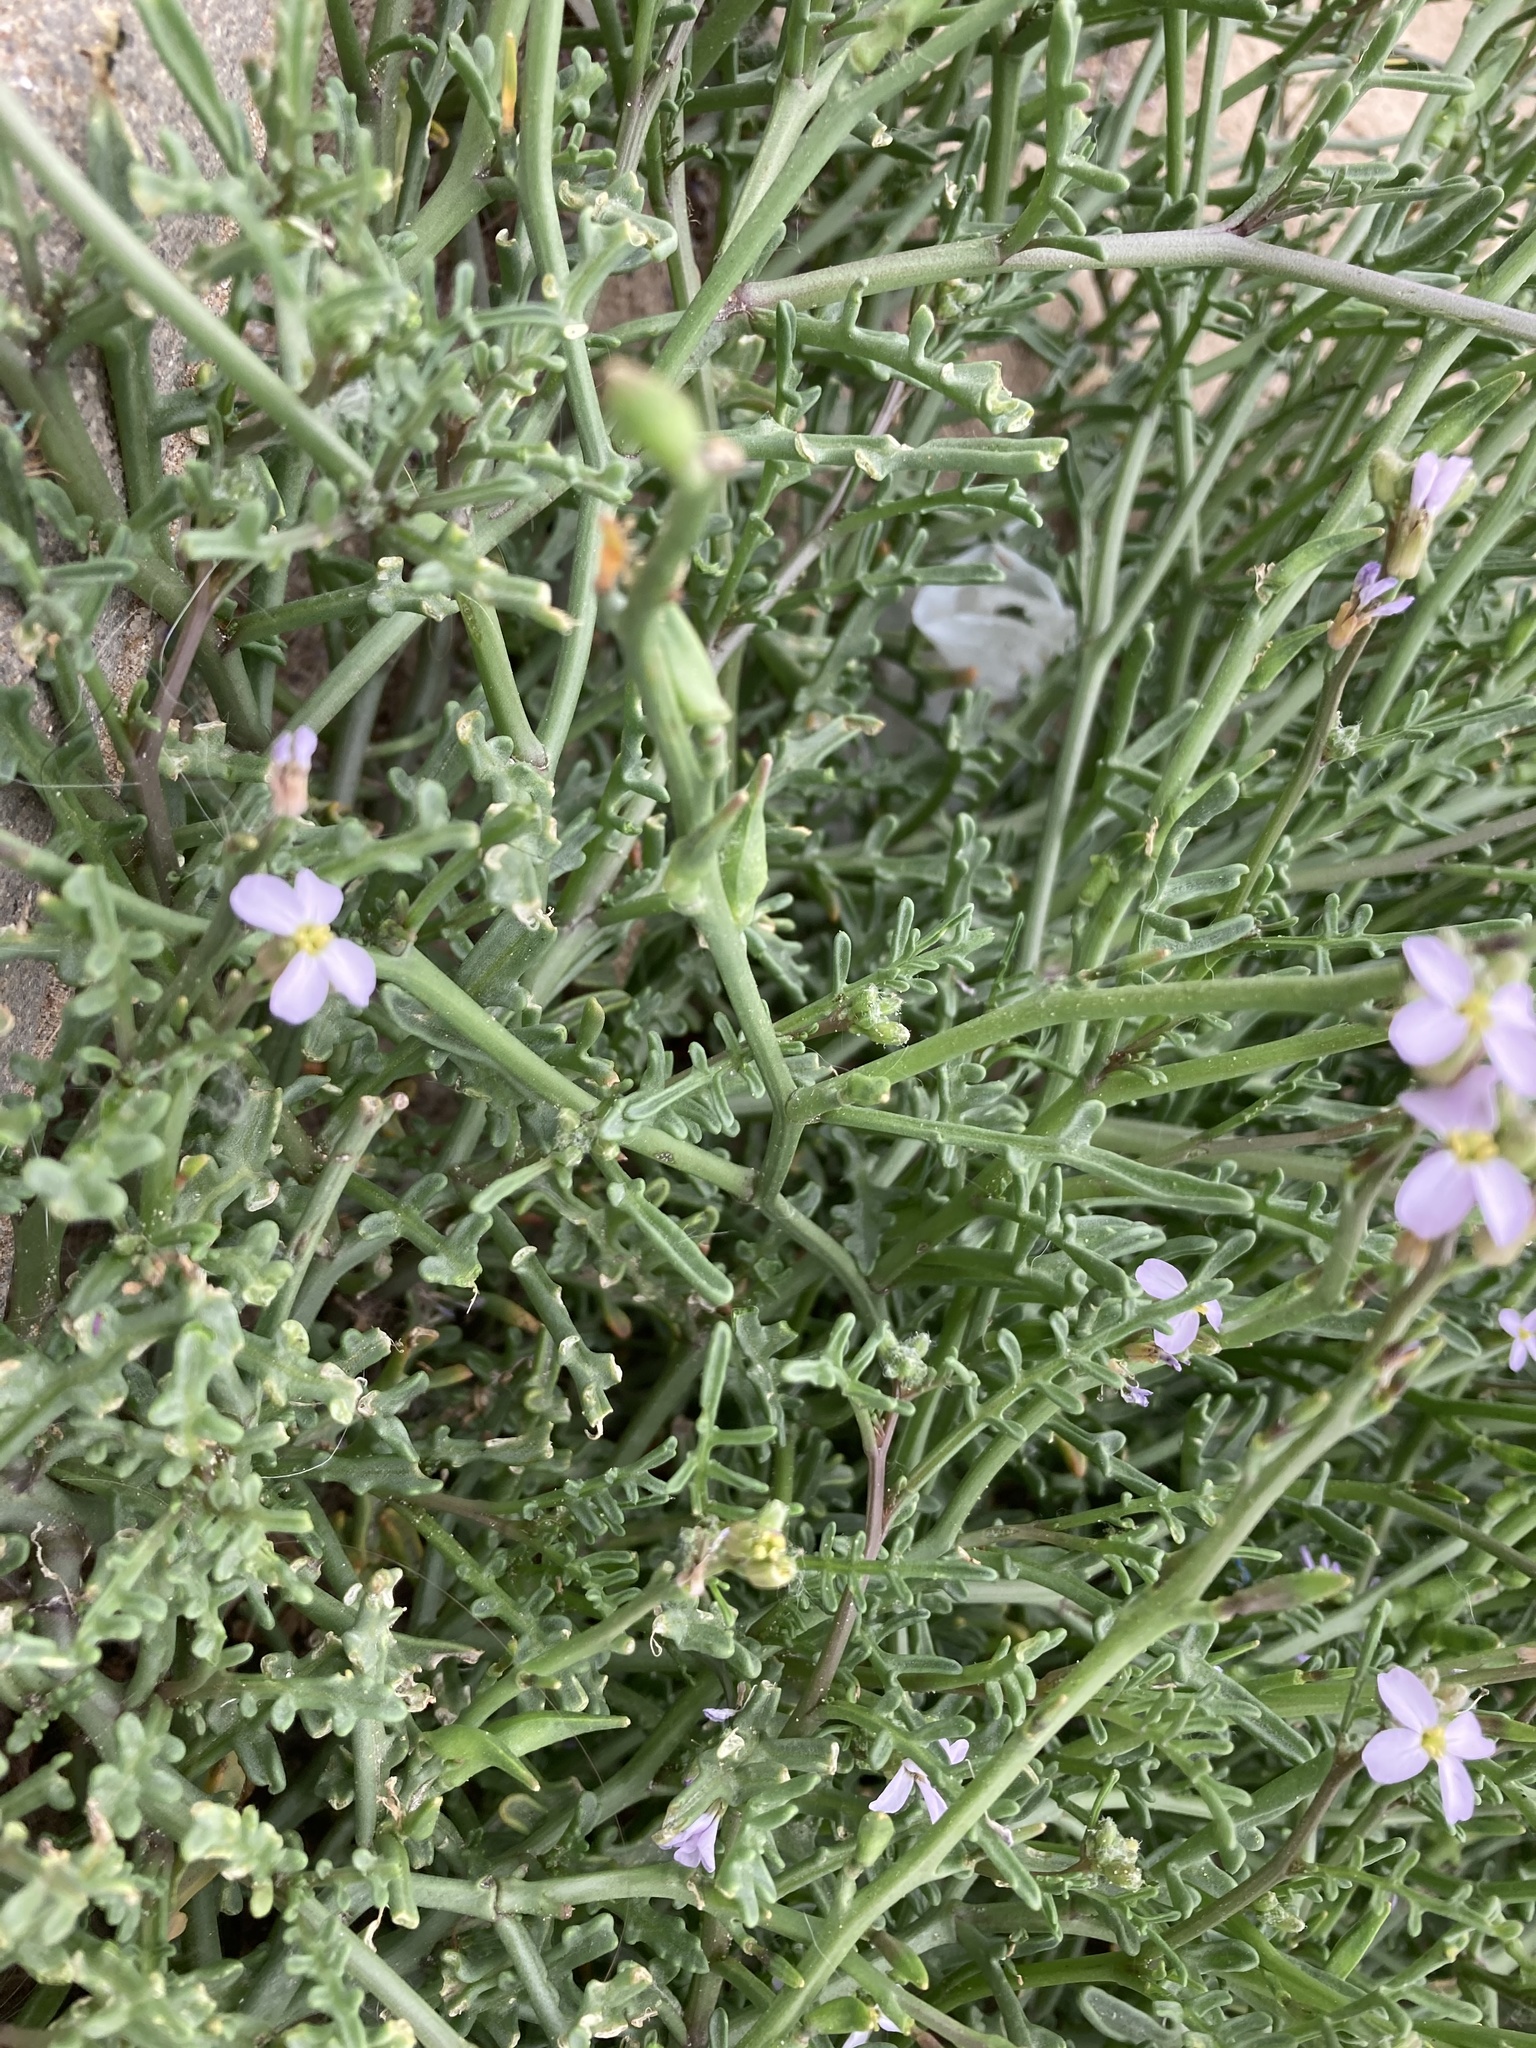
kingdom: Plantae
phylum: Tracheophyta
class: Magnoliopsida
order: Brassicales
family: Brassicaceae
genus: Cakile
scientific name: Cakile maritima
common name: Sea rocket
